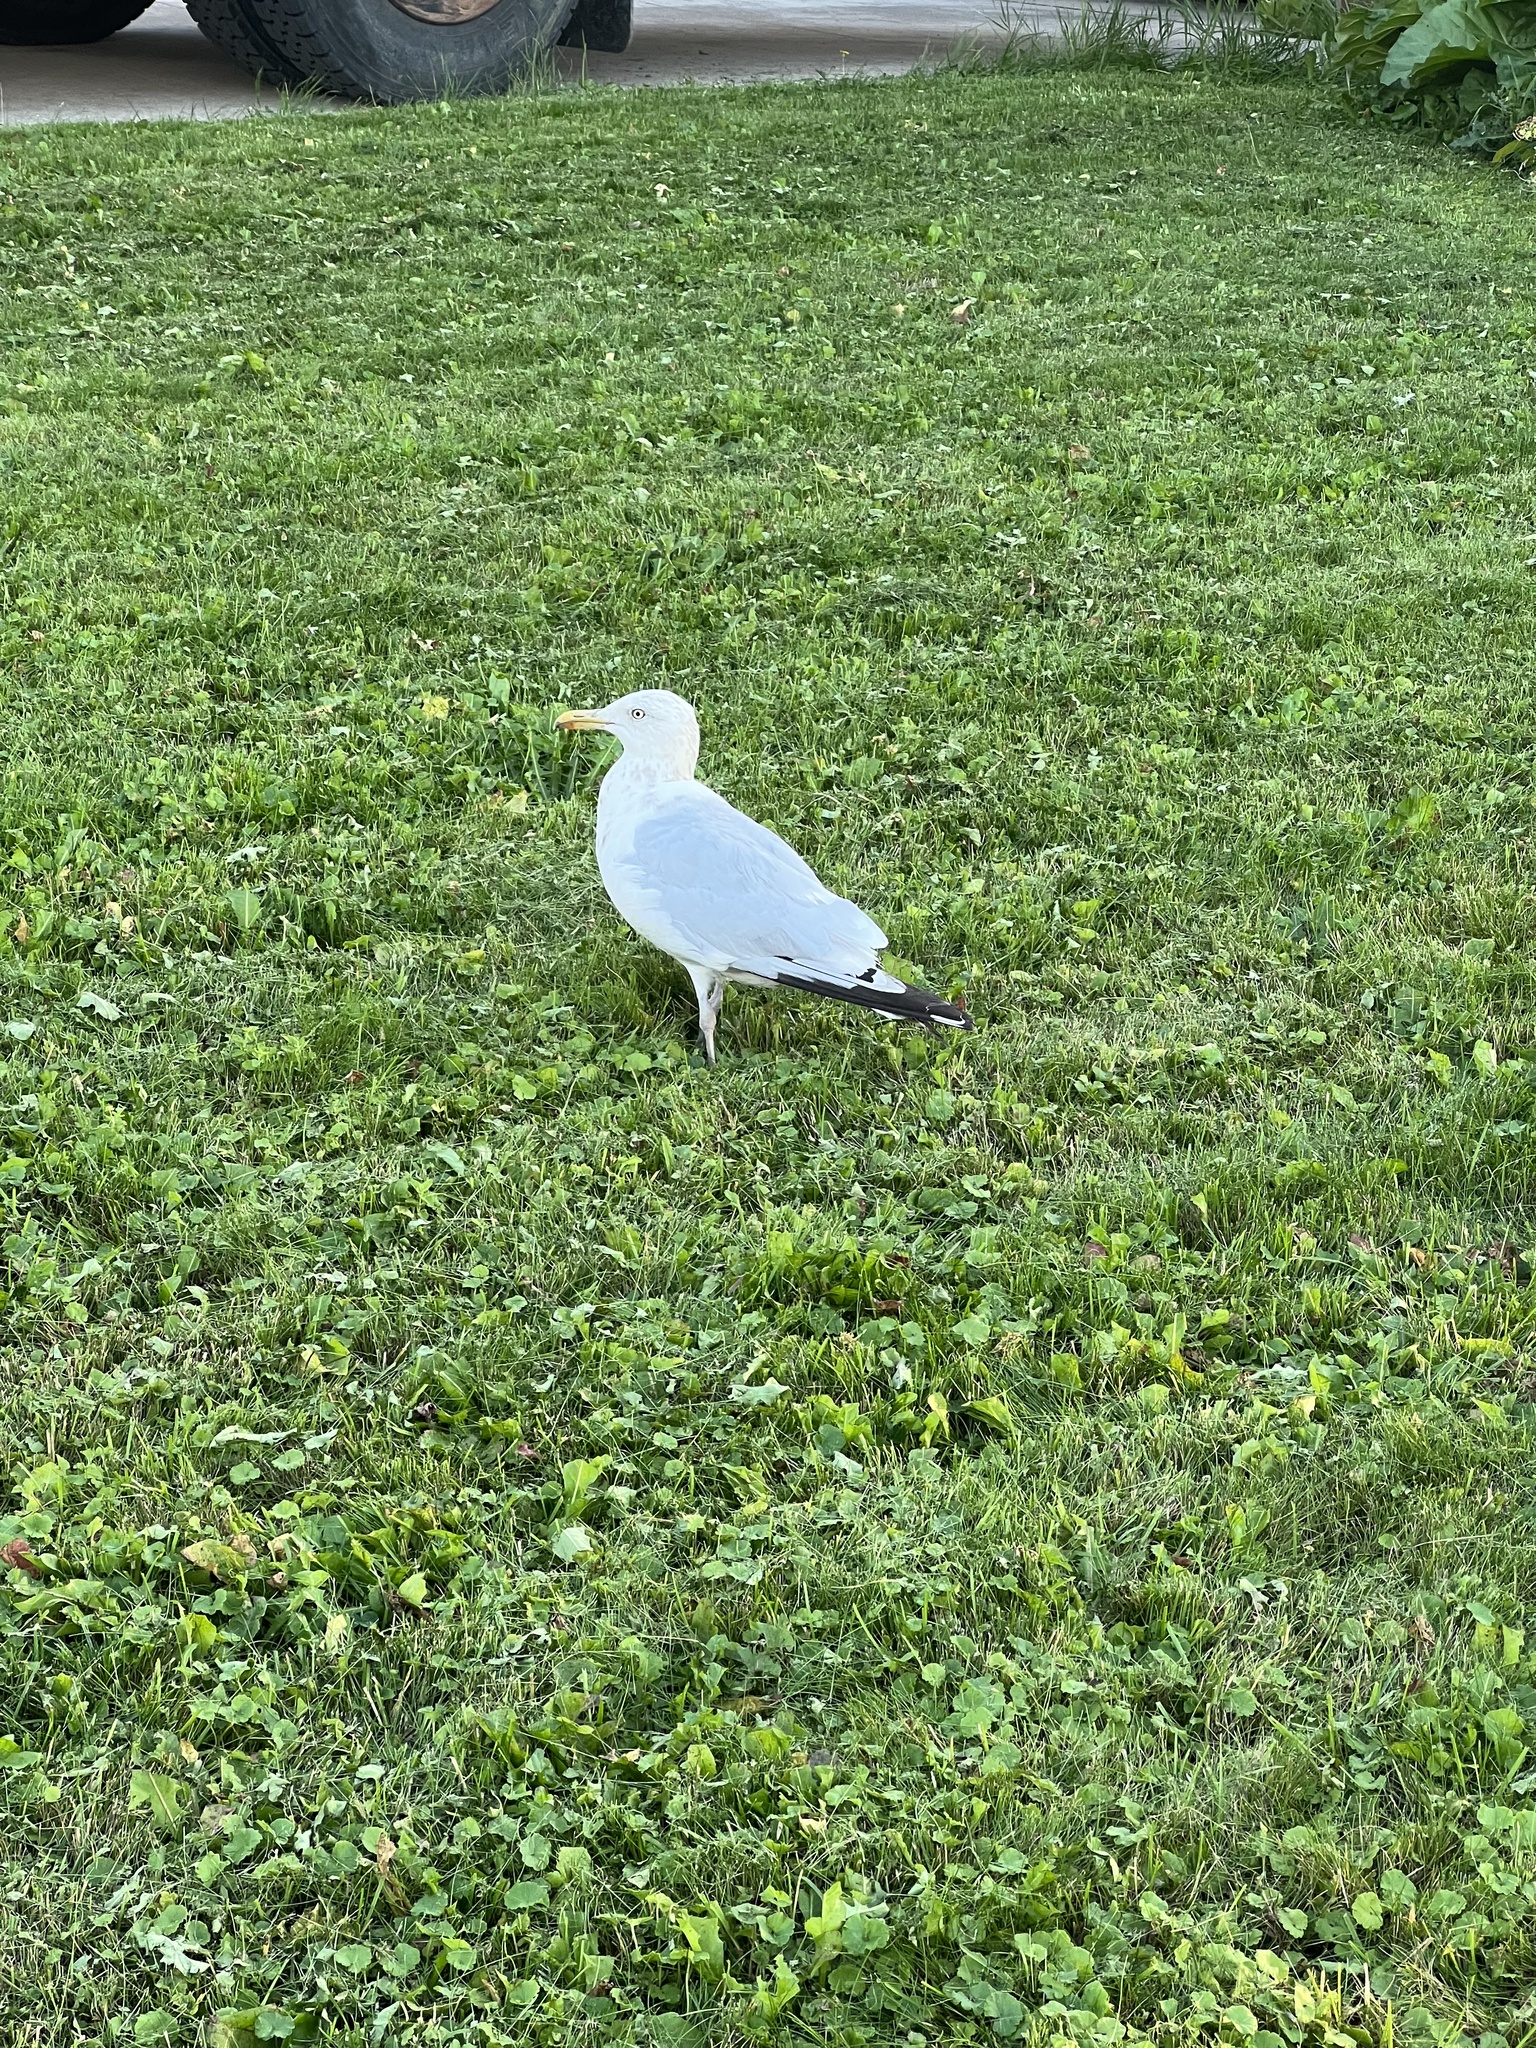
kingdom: Animalia
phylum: Chordata
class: Aves
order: Charadriiformes
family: Laridae
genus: Larus
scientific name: Larus argentatus
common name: Herring gull
